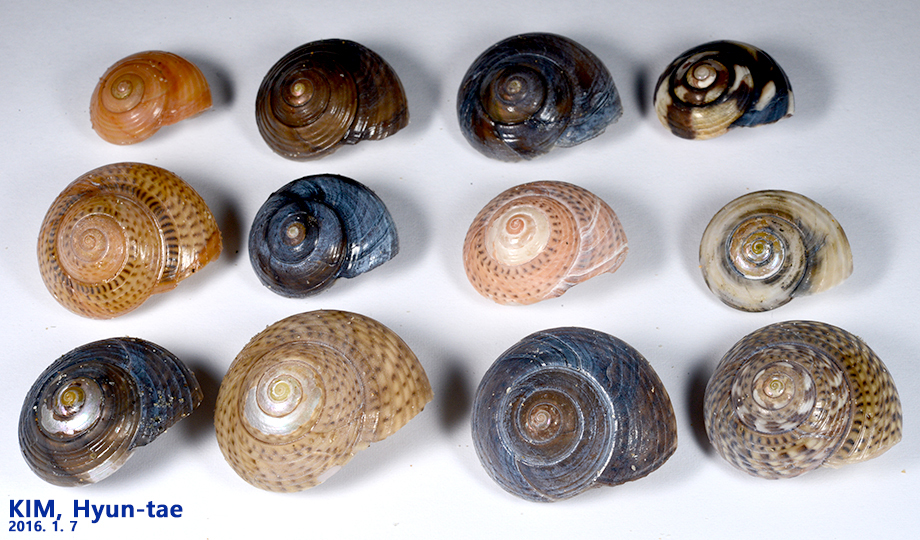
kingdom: Animalia
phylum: Mollusca
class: Gastropoda
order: Trochida
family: Trochidae
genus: Umbonium
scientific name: Umbonium costatum
